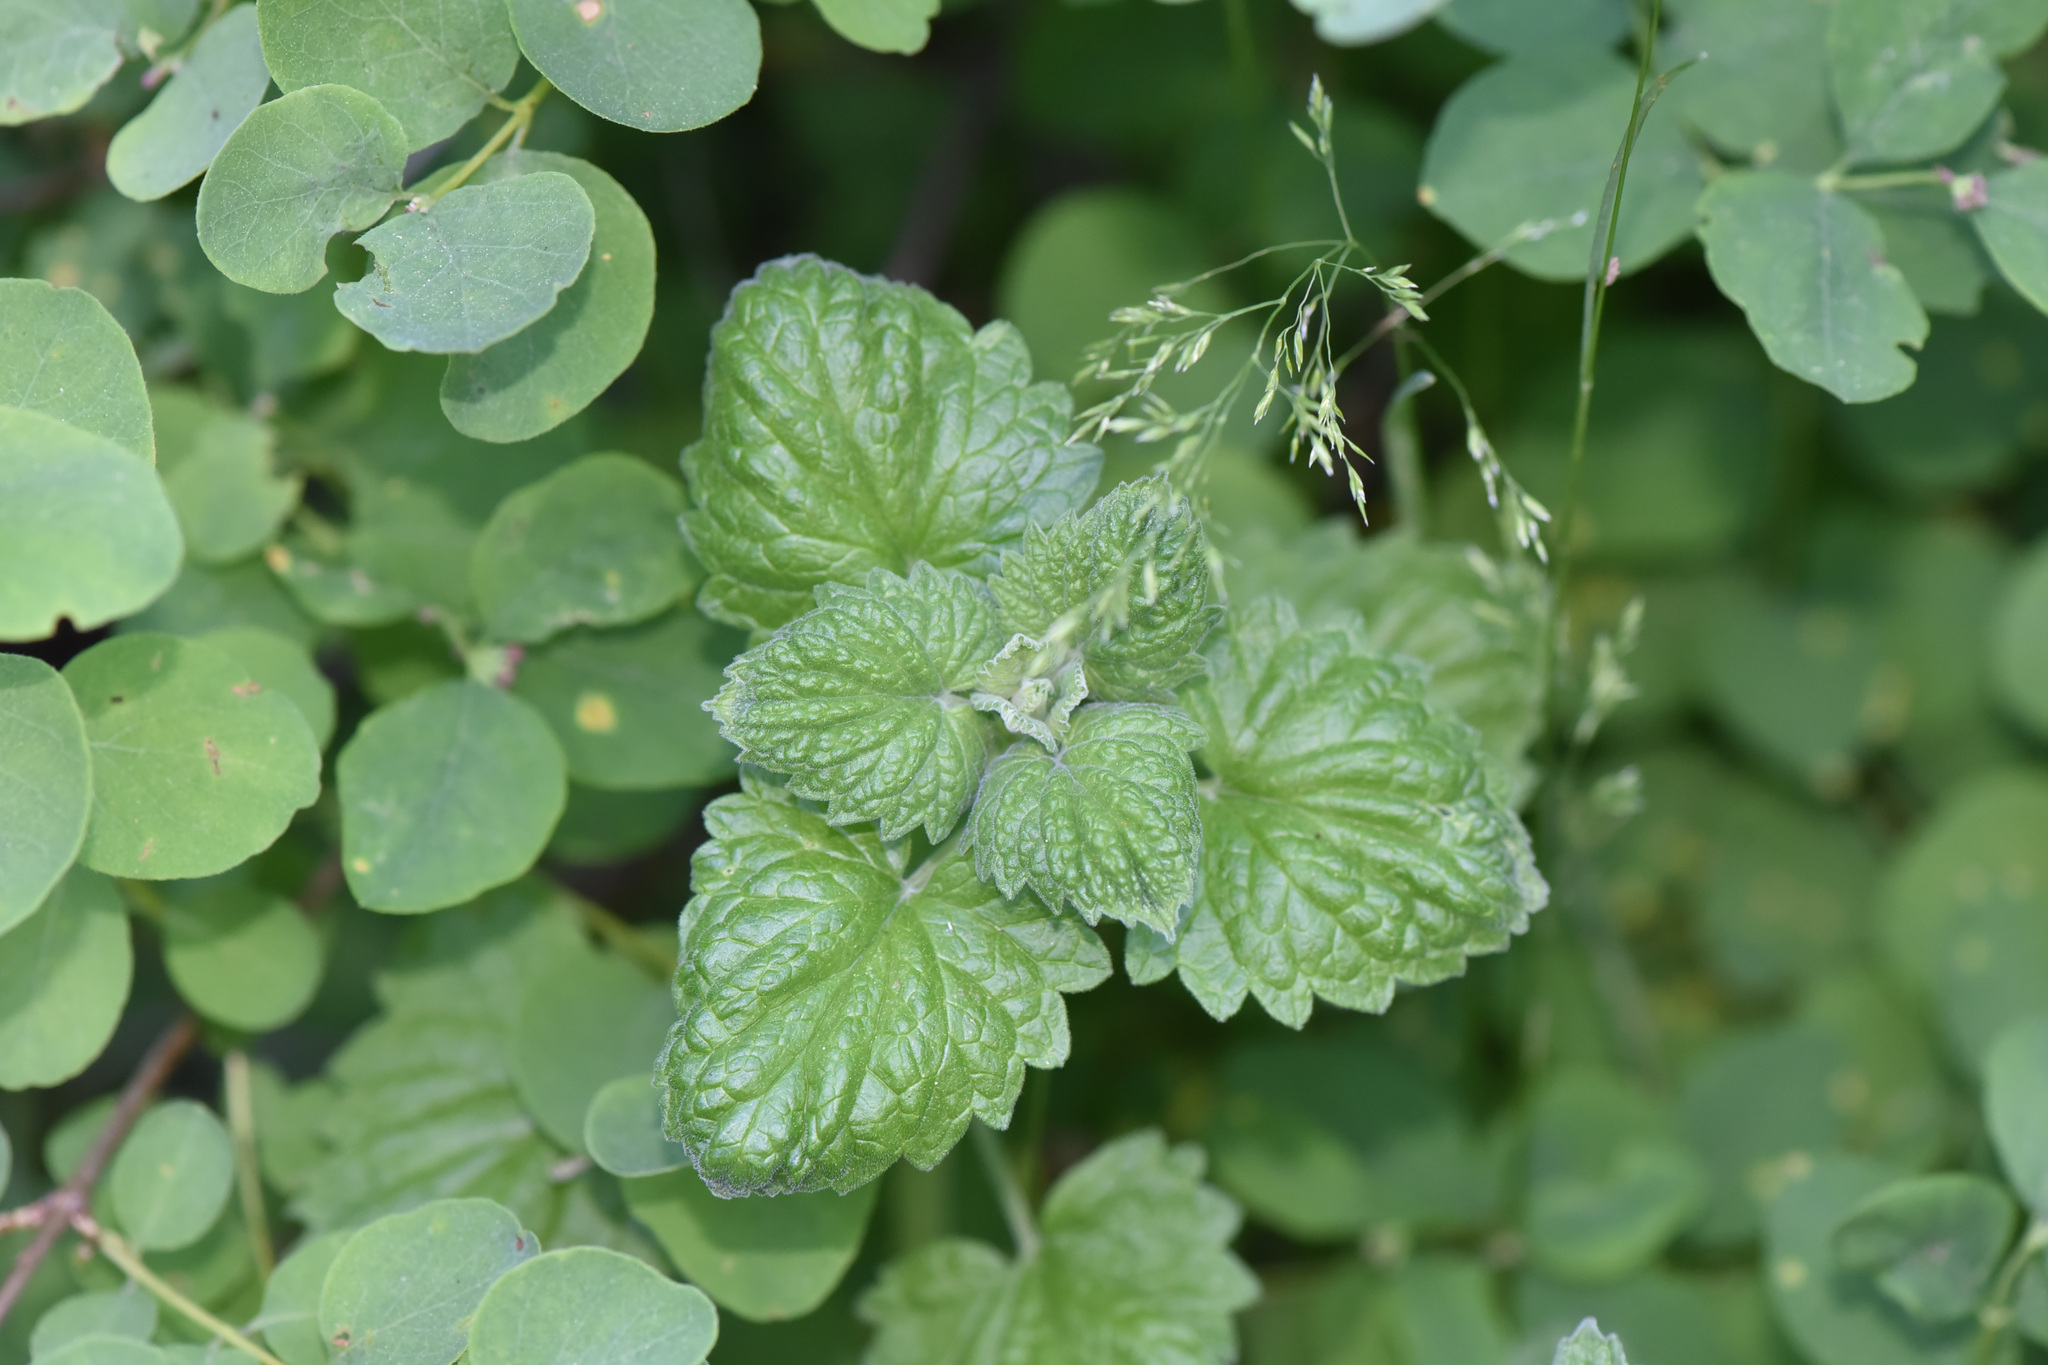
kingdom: Plantae
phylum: Tracheophyta
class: Magnoliopsida
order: Lamiales
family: Lamiaceae
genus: Nepeta
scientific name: Nepeta cataria
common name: Catnip
